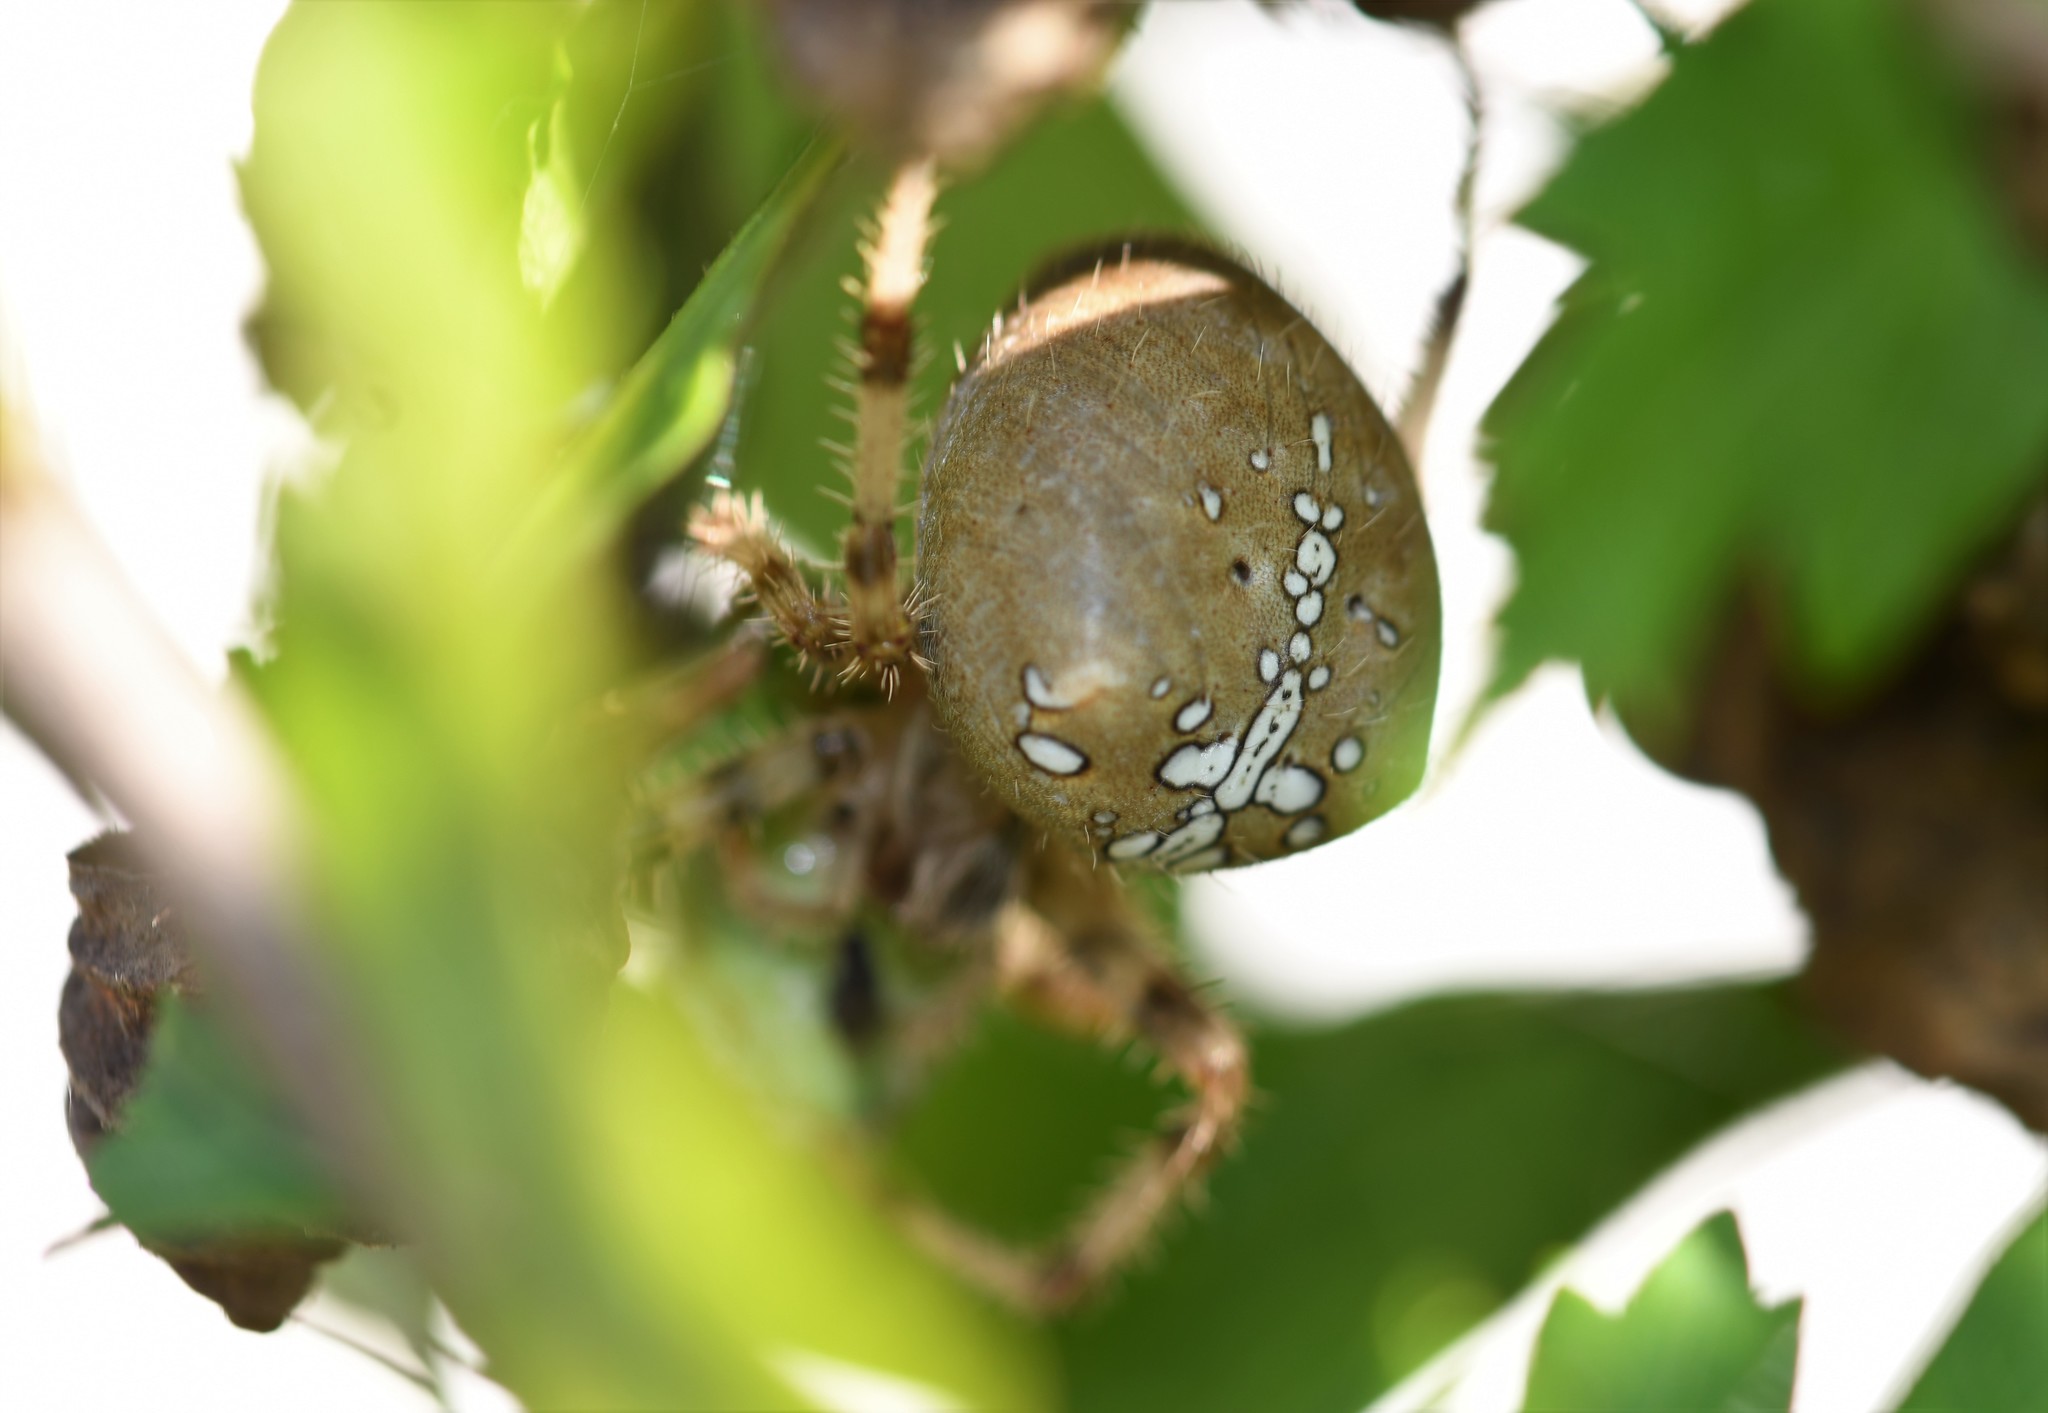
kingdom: Animalia
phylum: Arthropoda
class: Arachnida
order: Araneae
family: Araneidae
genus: Araneus
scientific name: Araneus pallidus
